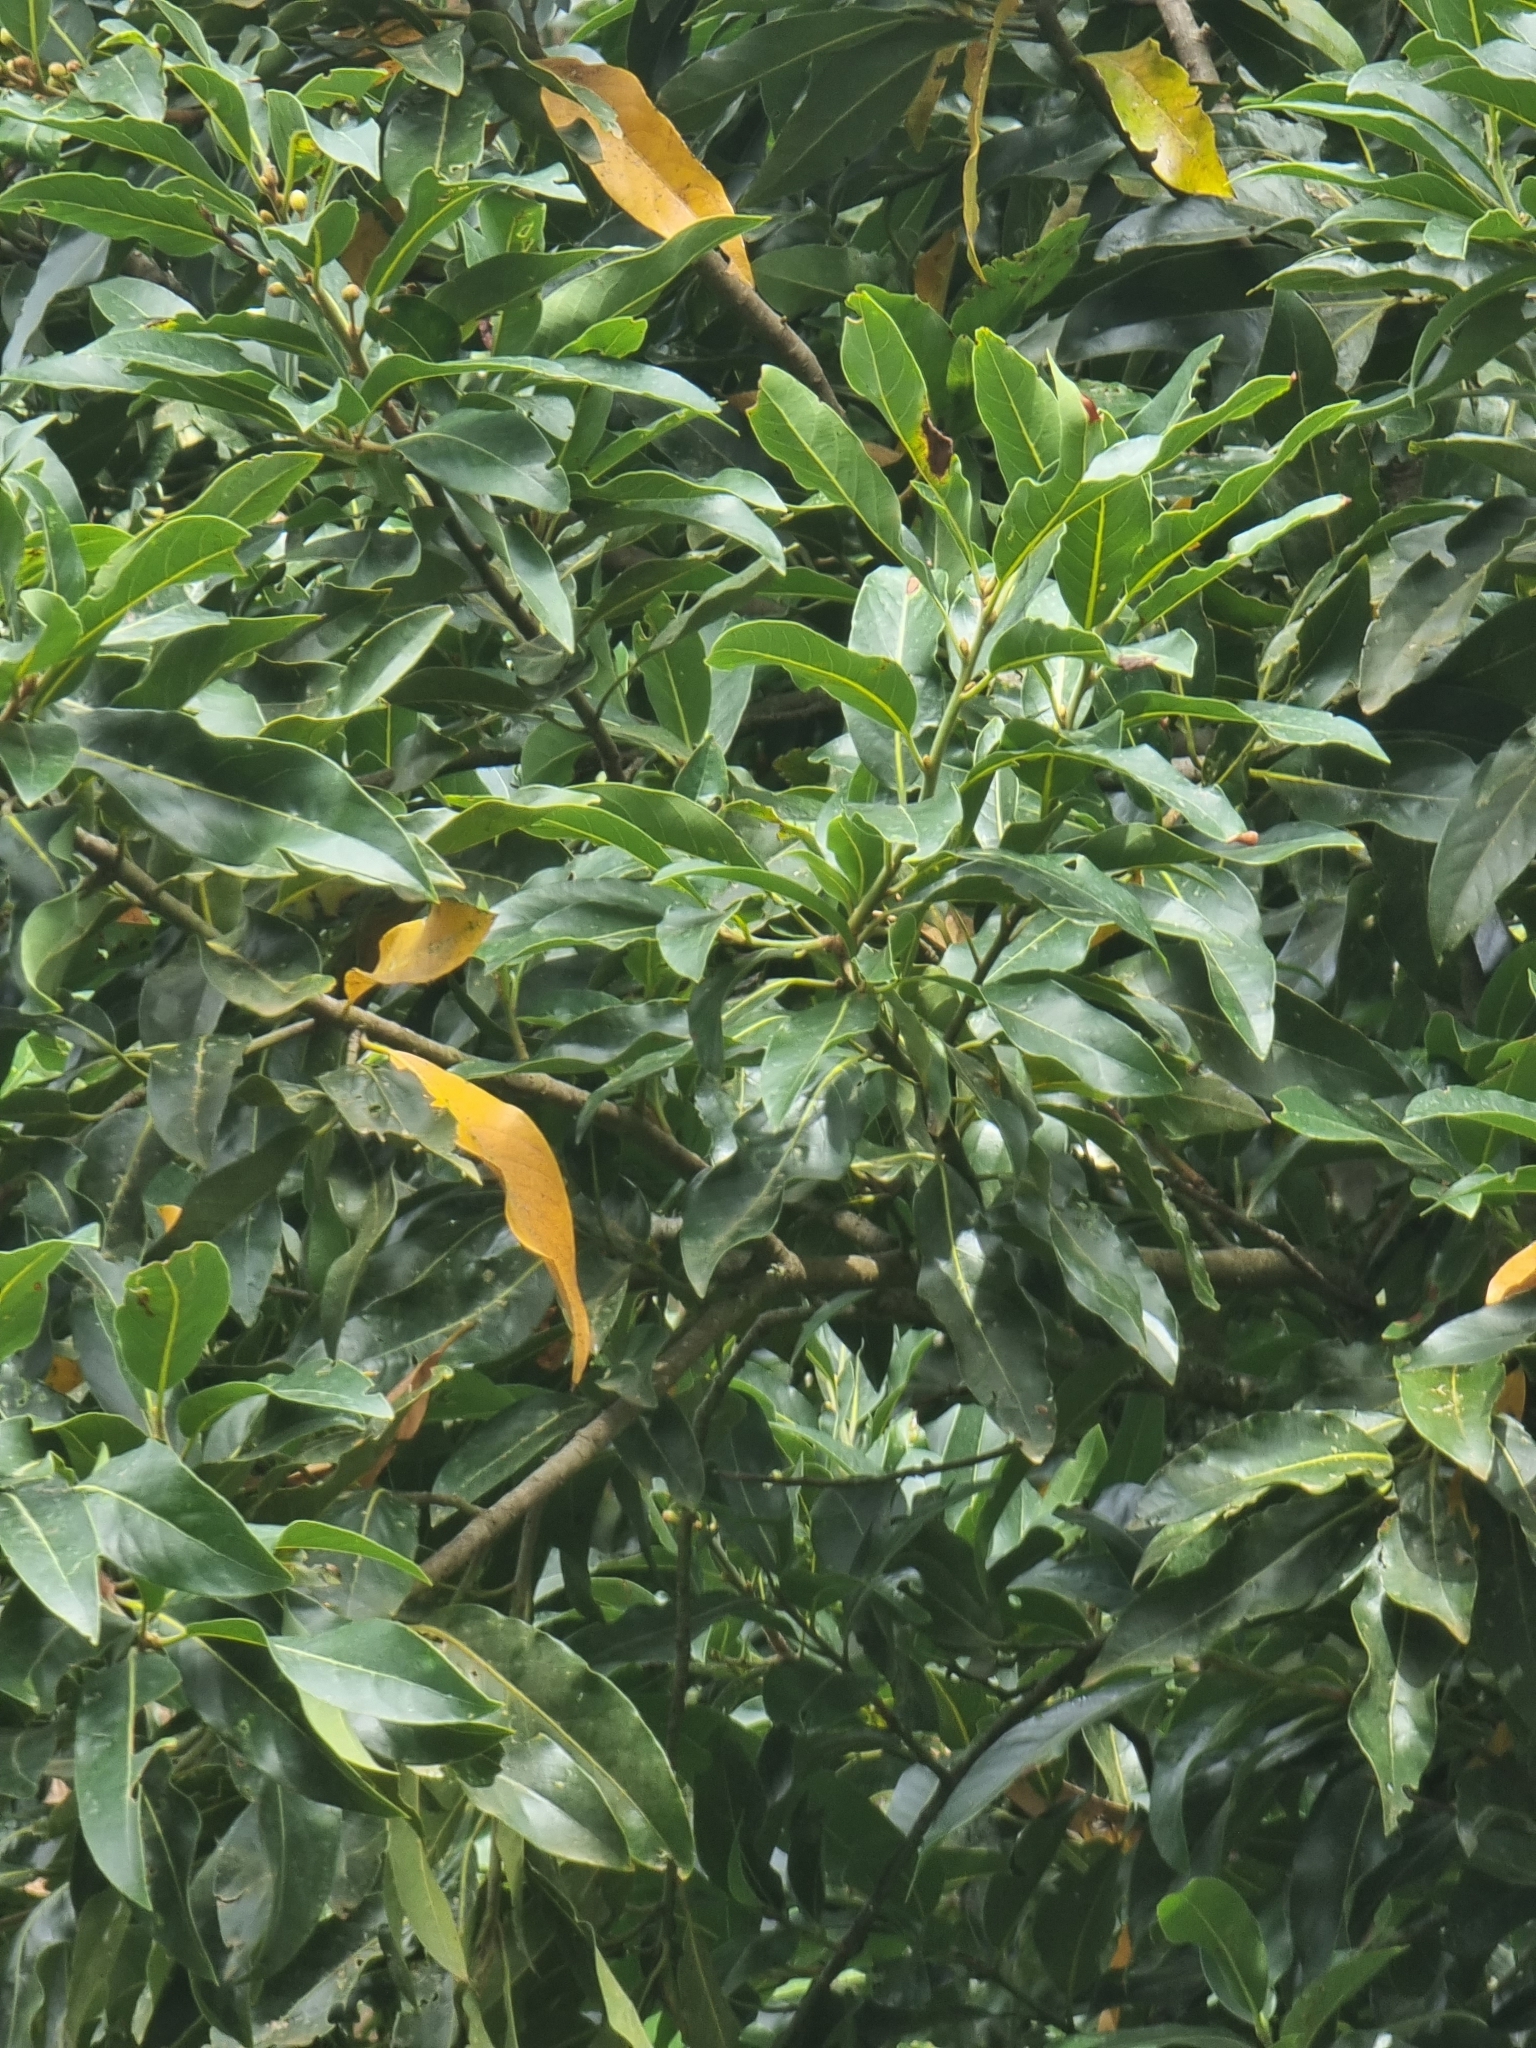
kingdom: Plantae
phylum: Tracheophyta
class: Magnoliopsida
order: Laurales
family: Lauraceae
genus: Laurus
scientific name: Laurus novocanariensis
